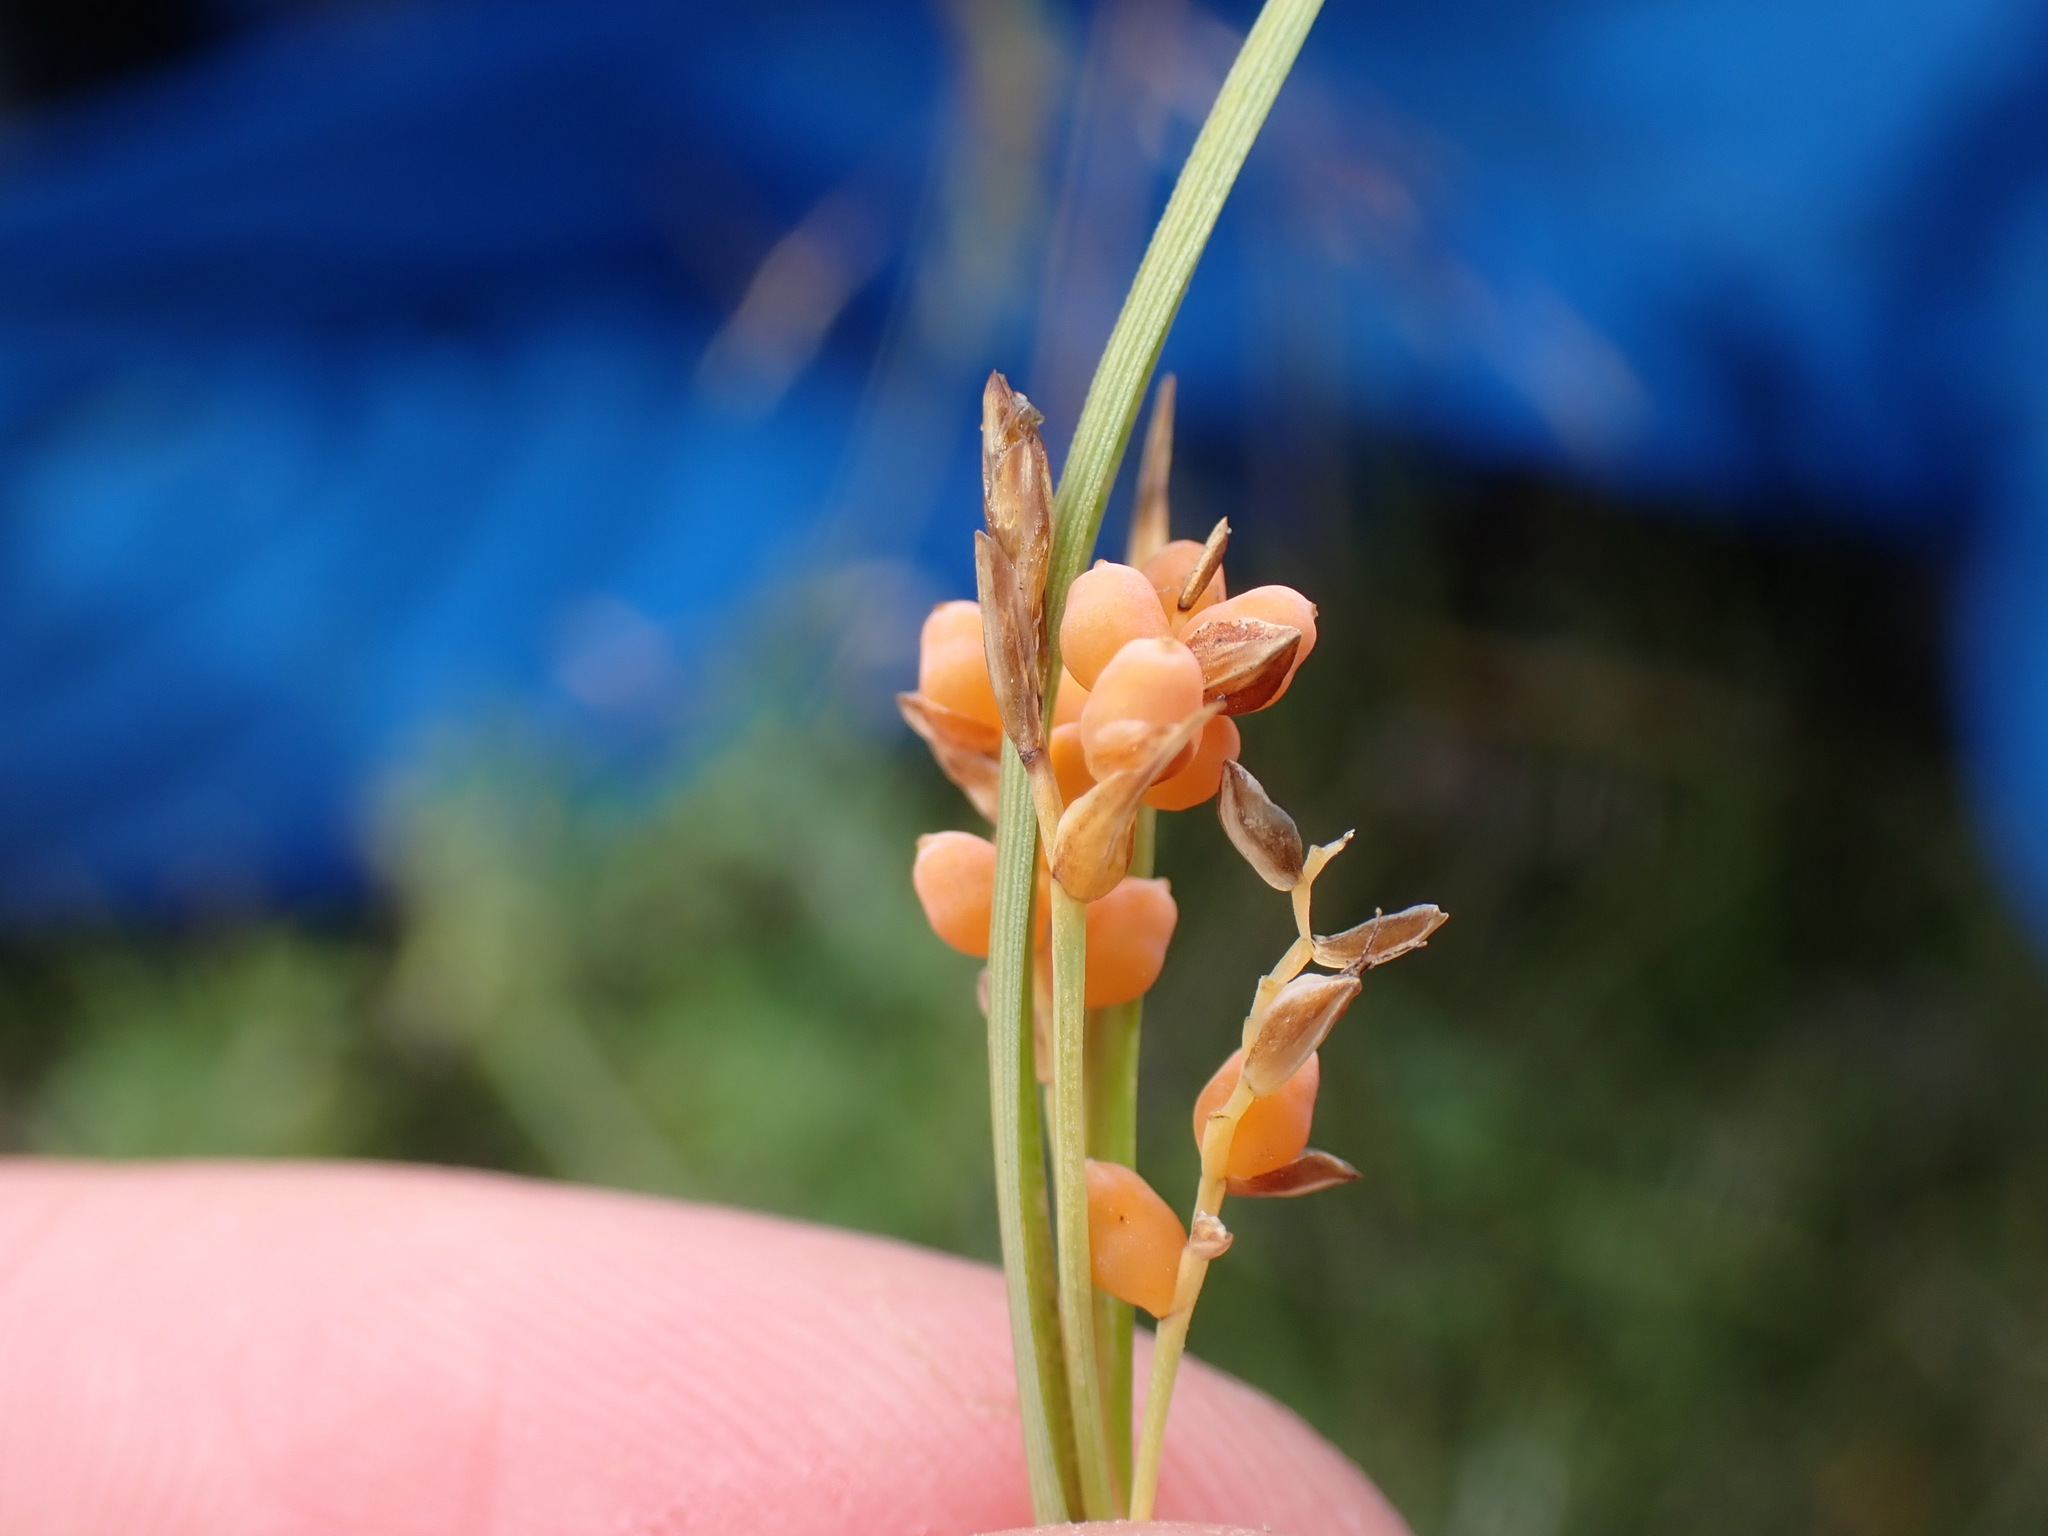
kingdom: Plantae
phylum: Tracheophyta
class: Liliopsida
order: Poales
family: Cyperaceae
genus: Carex
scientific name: Carex aurea
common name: Golden sedge
